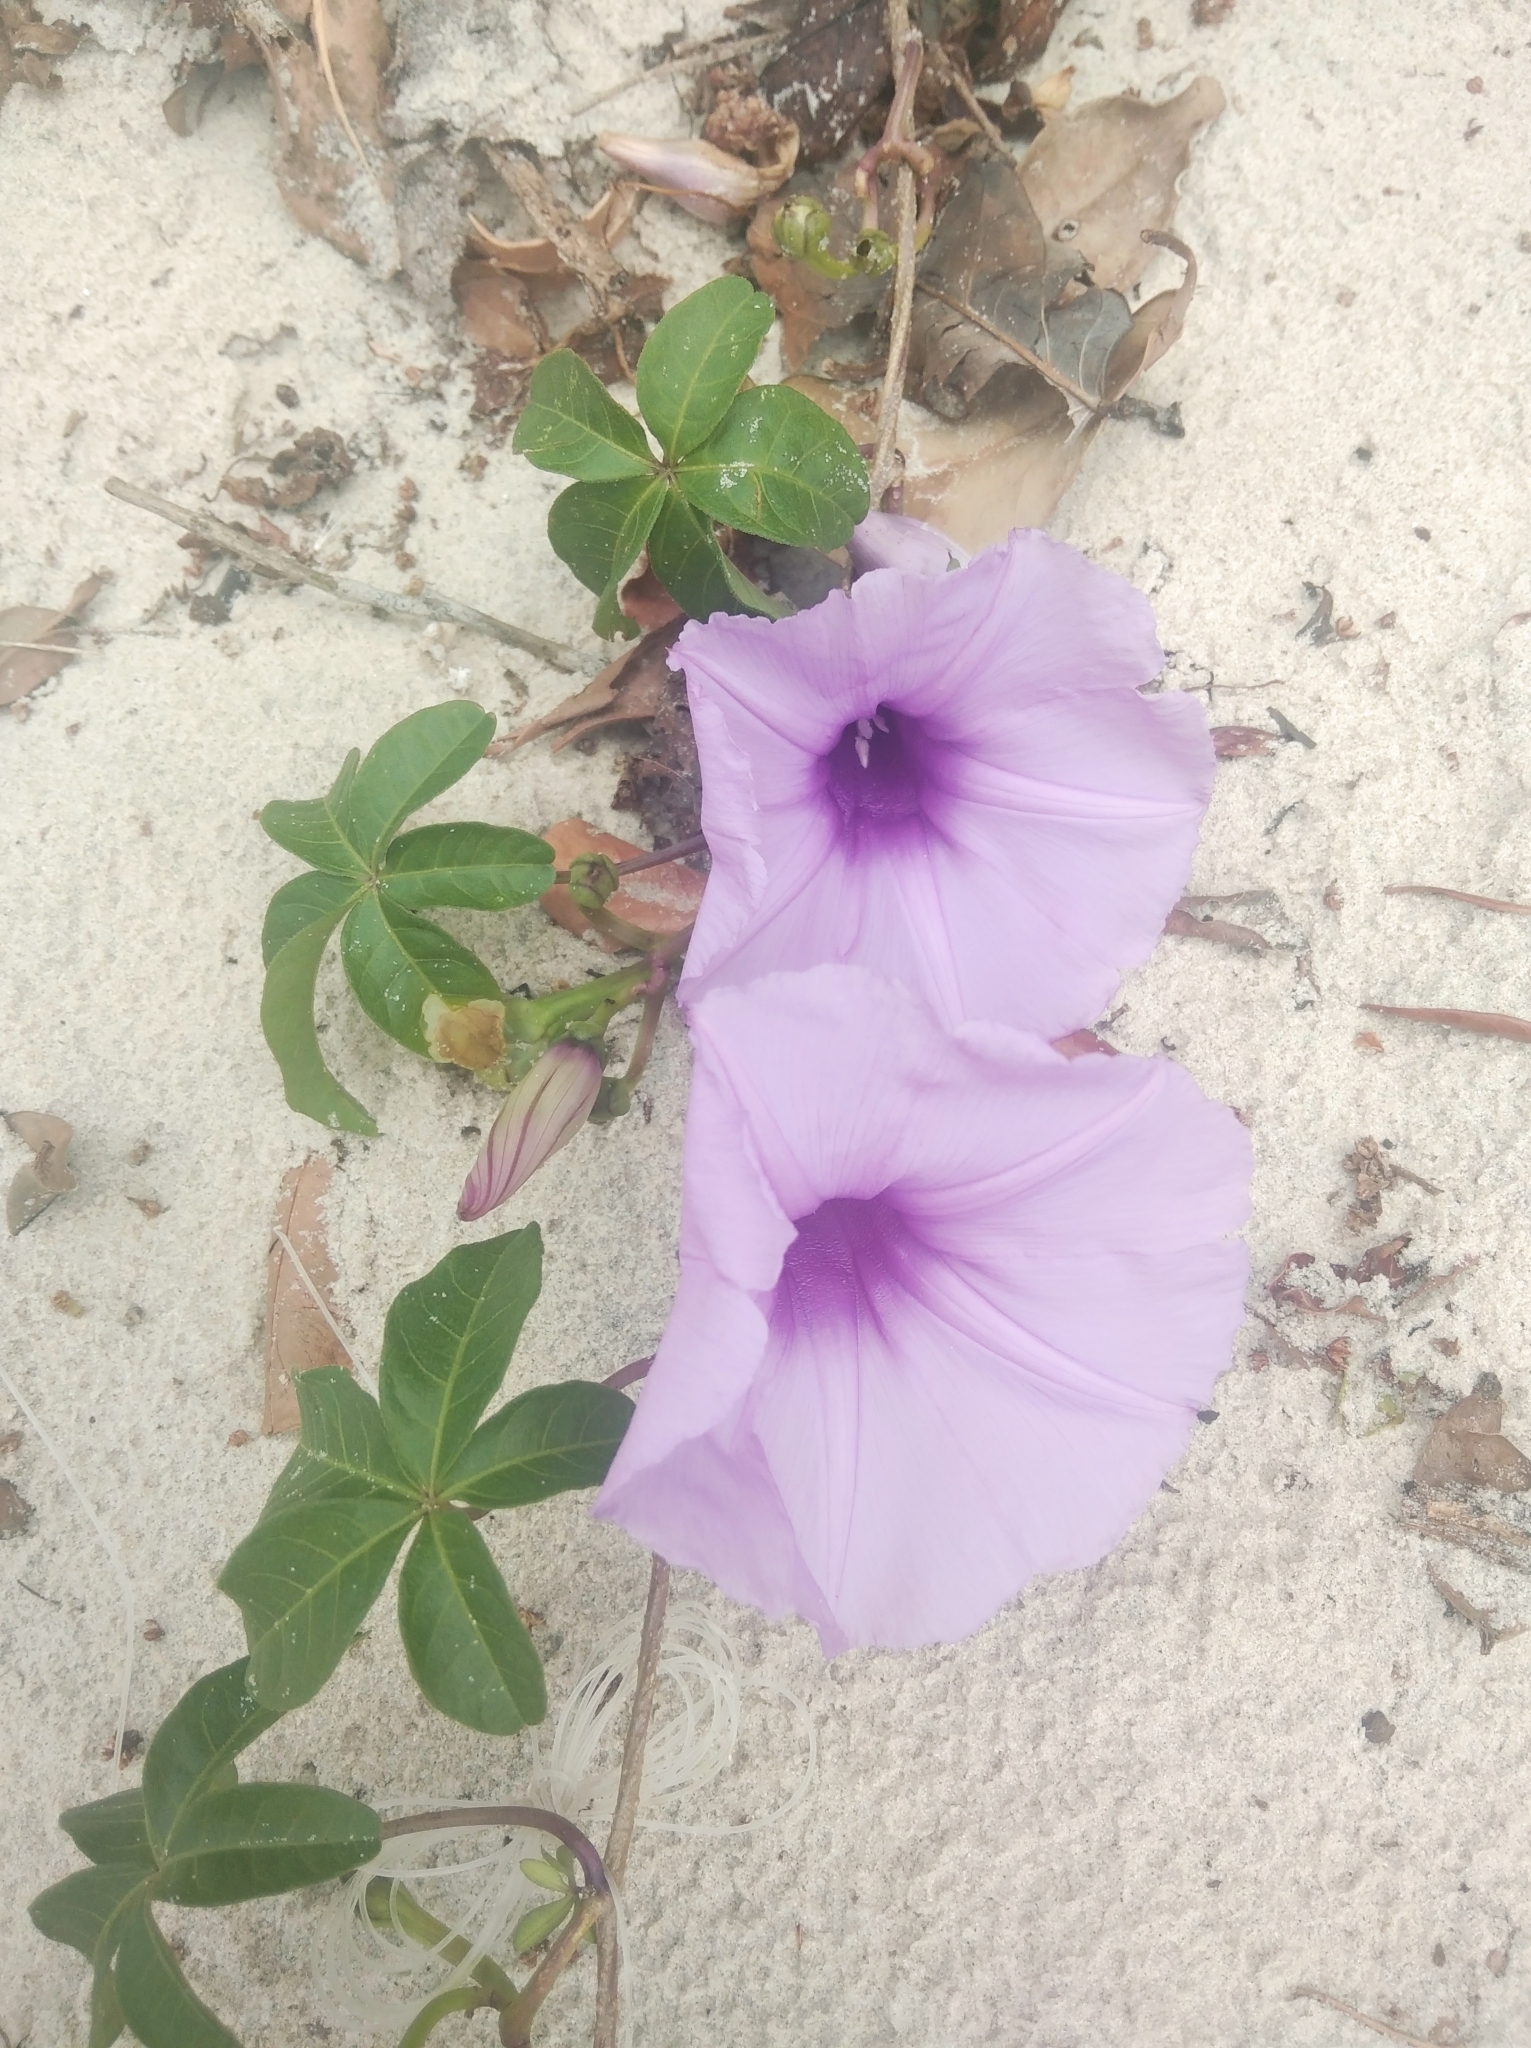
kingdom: Plantae
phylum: Tracheophyta
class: Magnoliopsida
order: Solanales
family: Convolvulaceae
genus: Ipomoea
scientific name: Ipomoea cairica
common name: Mile a minute vine
